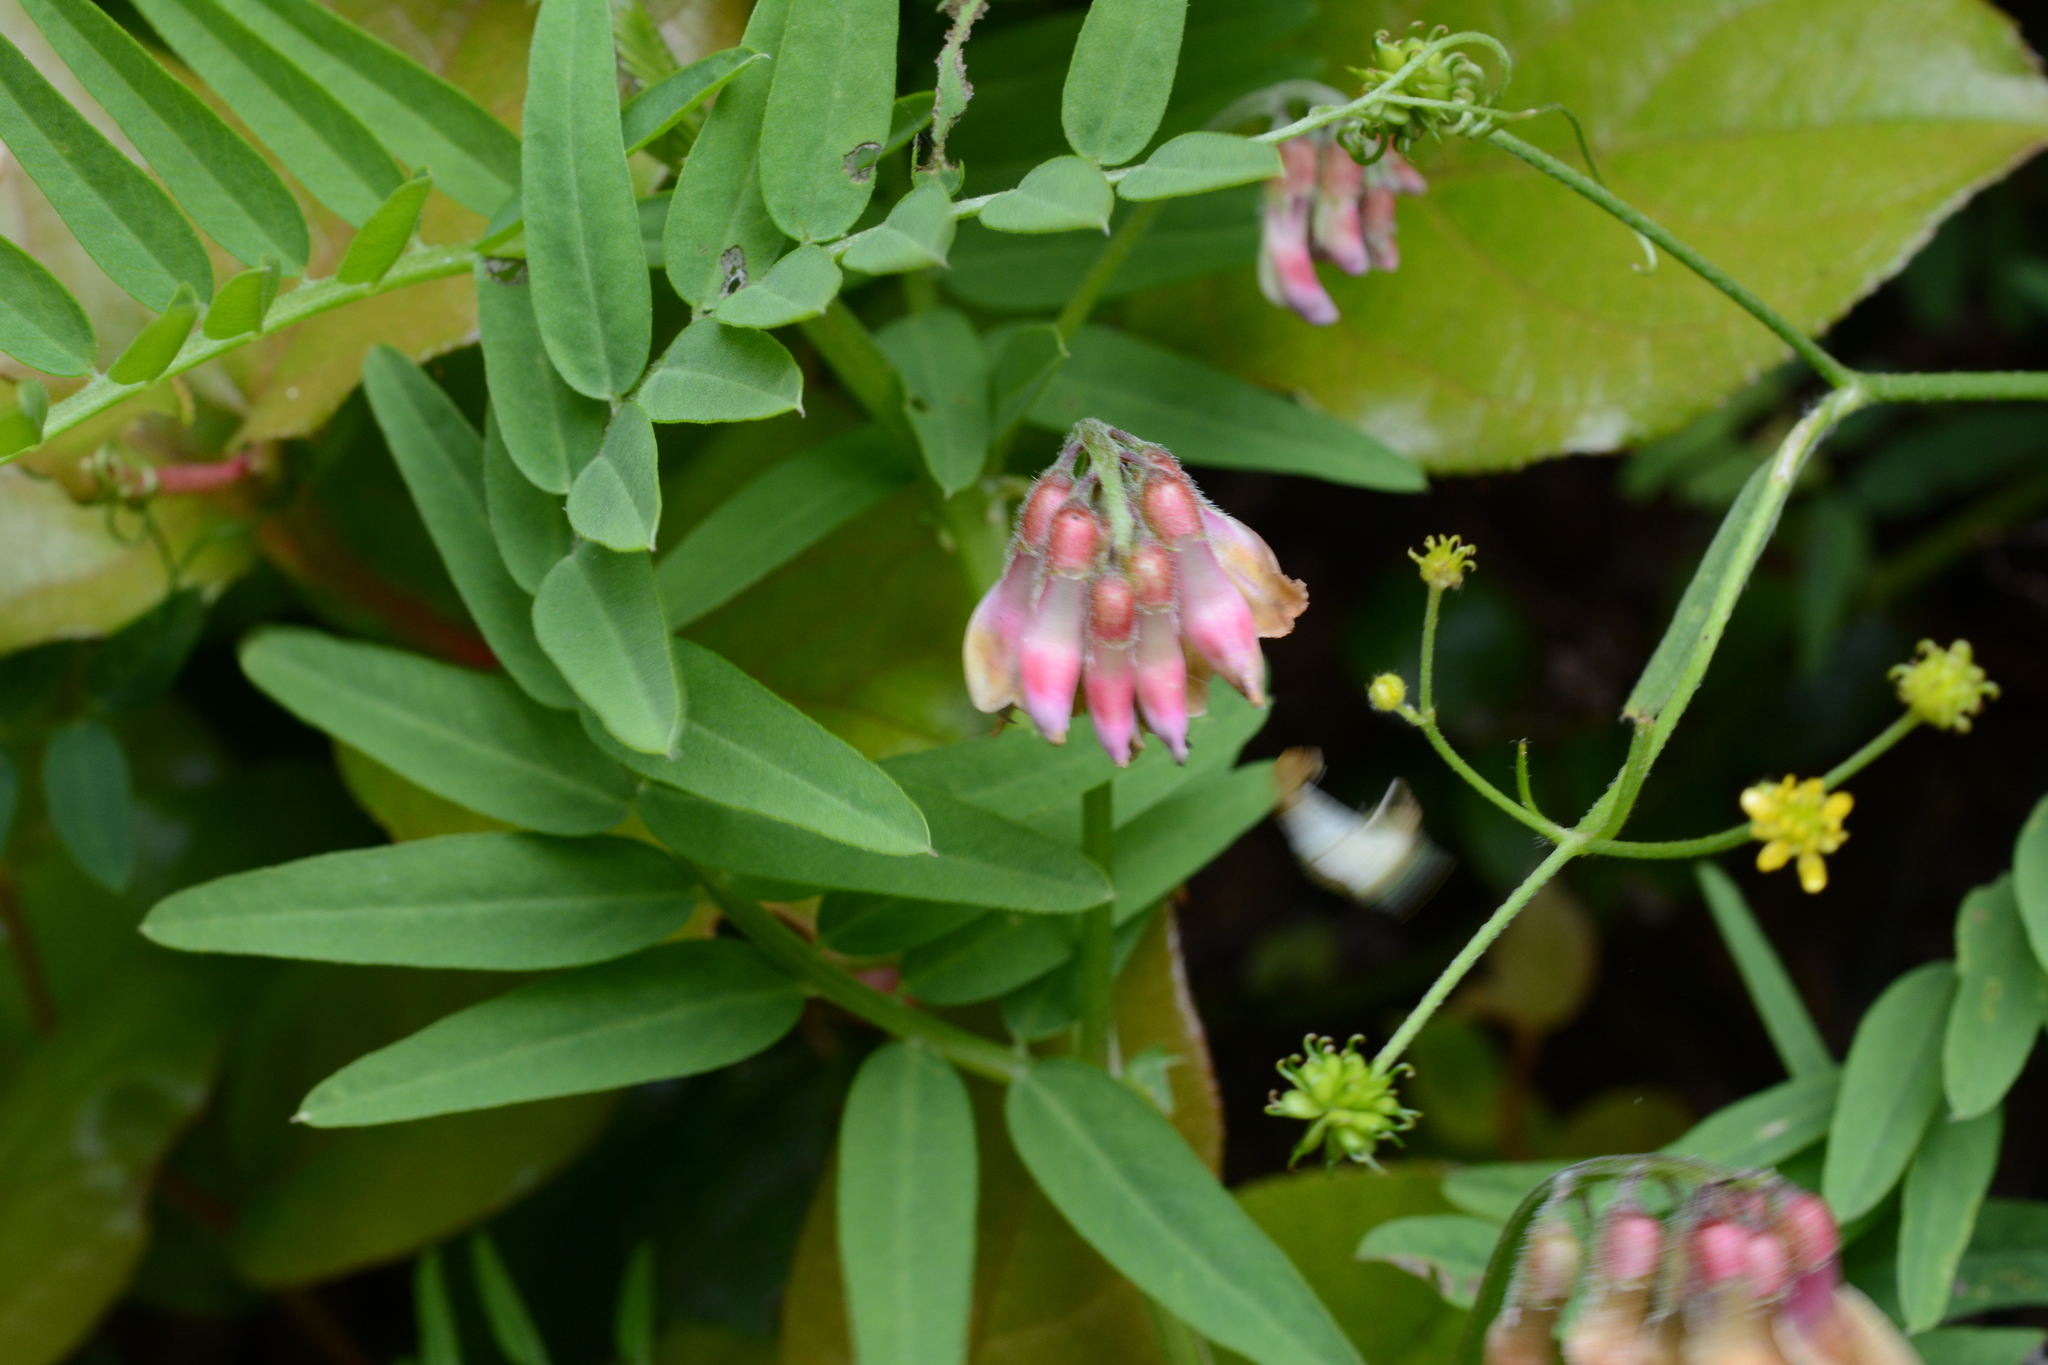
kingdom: Plantae
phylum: Tracheophyta
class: Magnoliopsida
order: Fabales
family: Fabaceae
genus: Vicia
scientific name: Vicia
